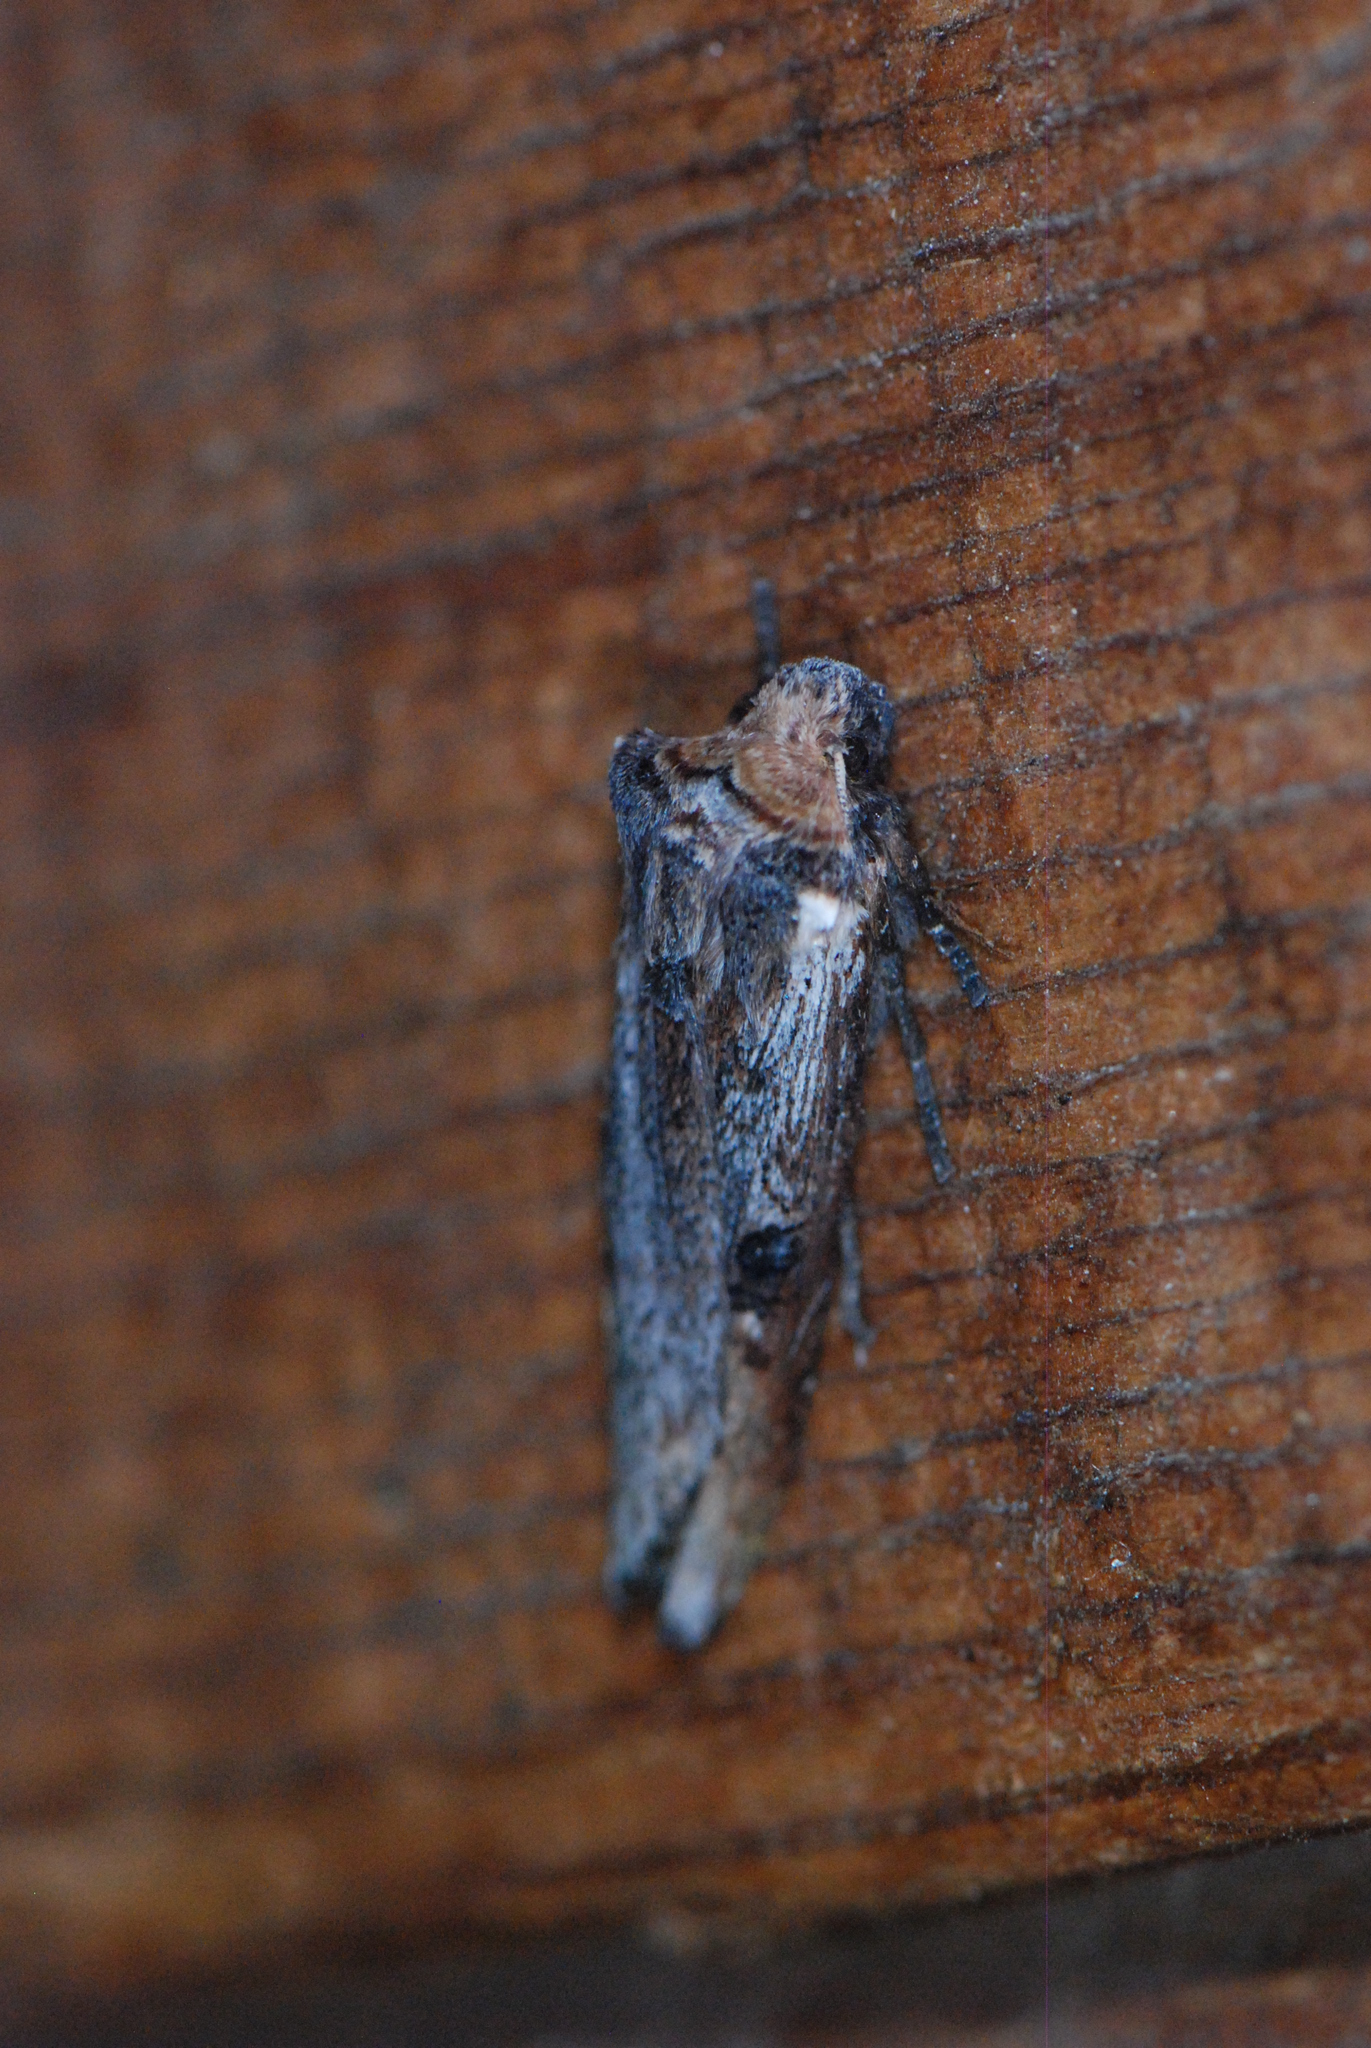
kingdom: Animalia
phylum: Arthropoda
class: Insecta
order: Lepidoptera
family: Noctuidae
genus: Xylena
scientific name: Xylena thoracica
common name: Acadian swordgrass moth
